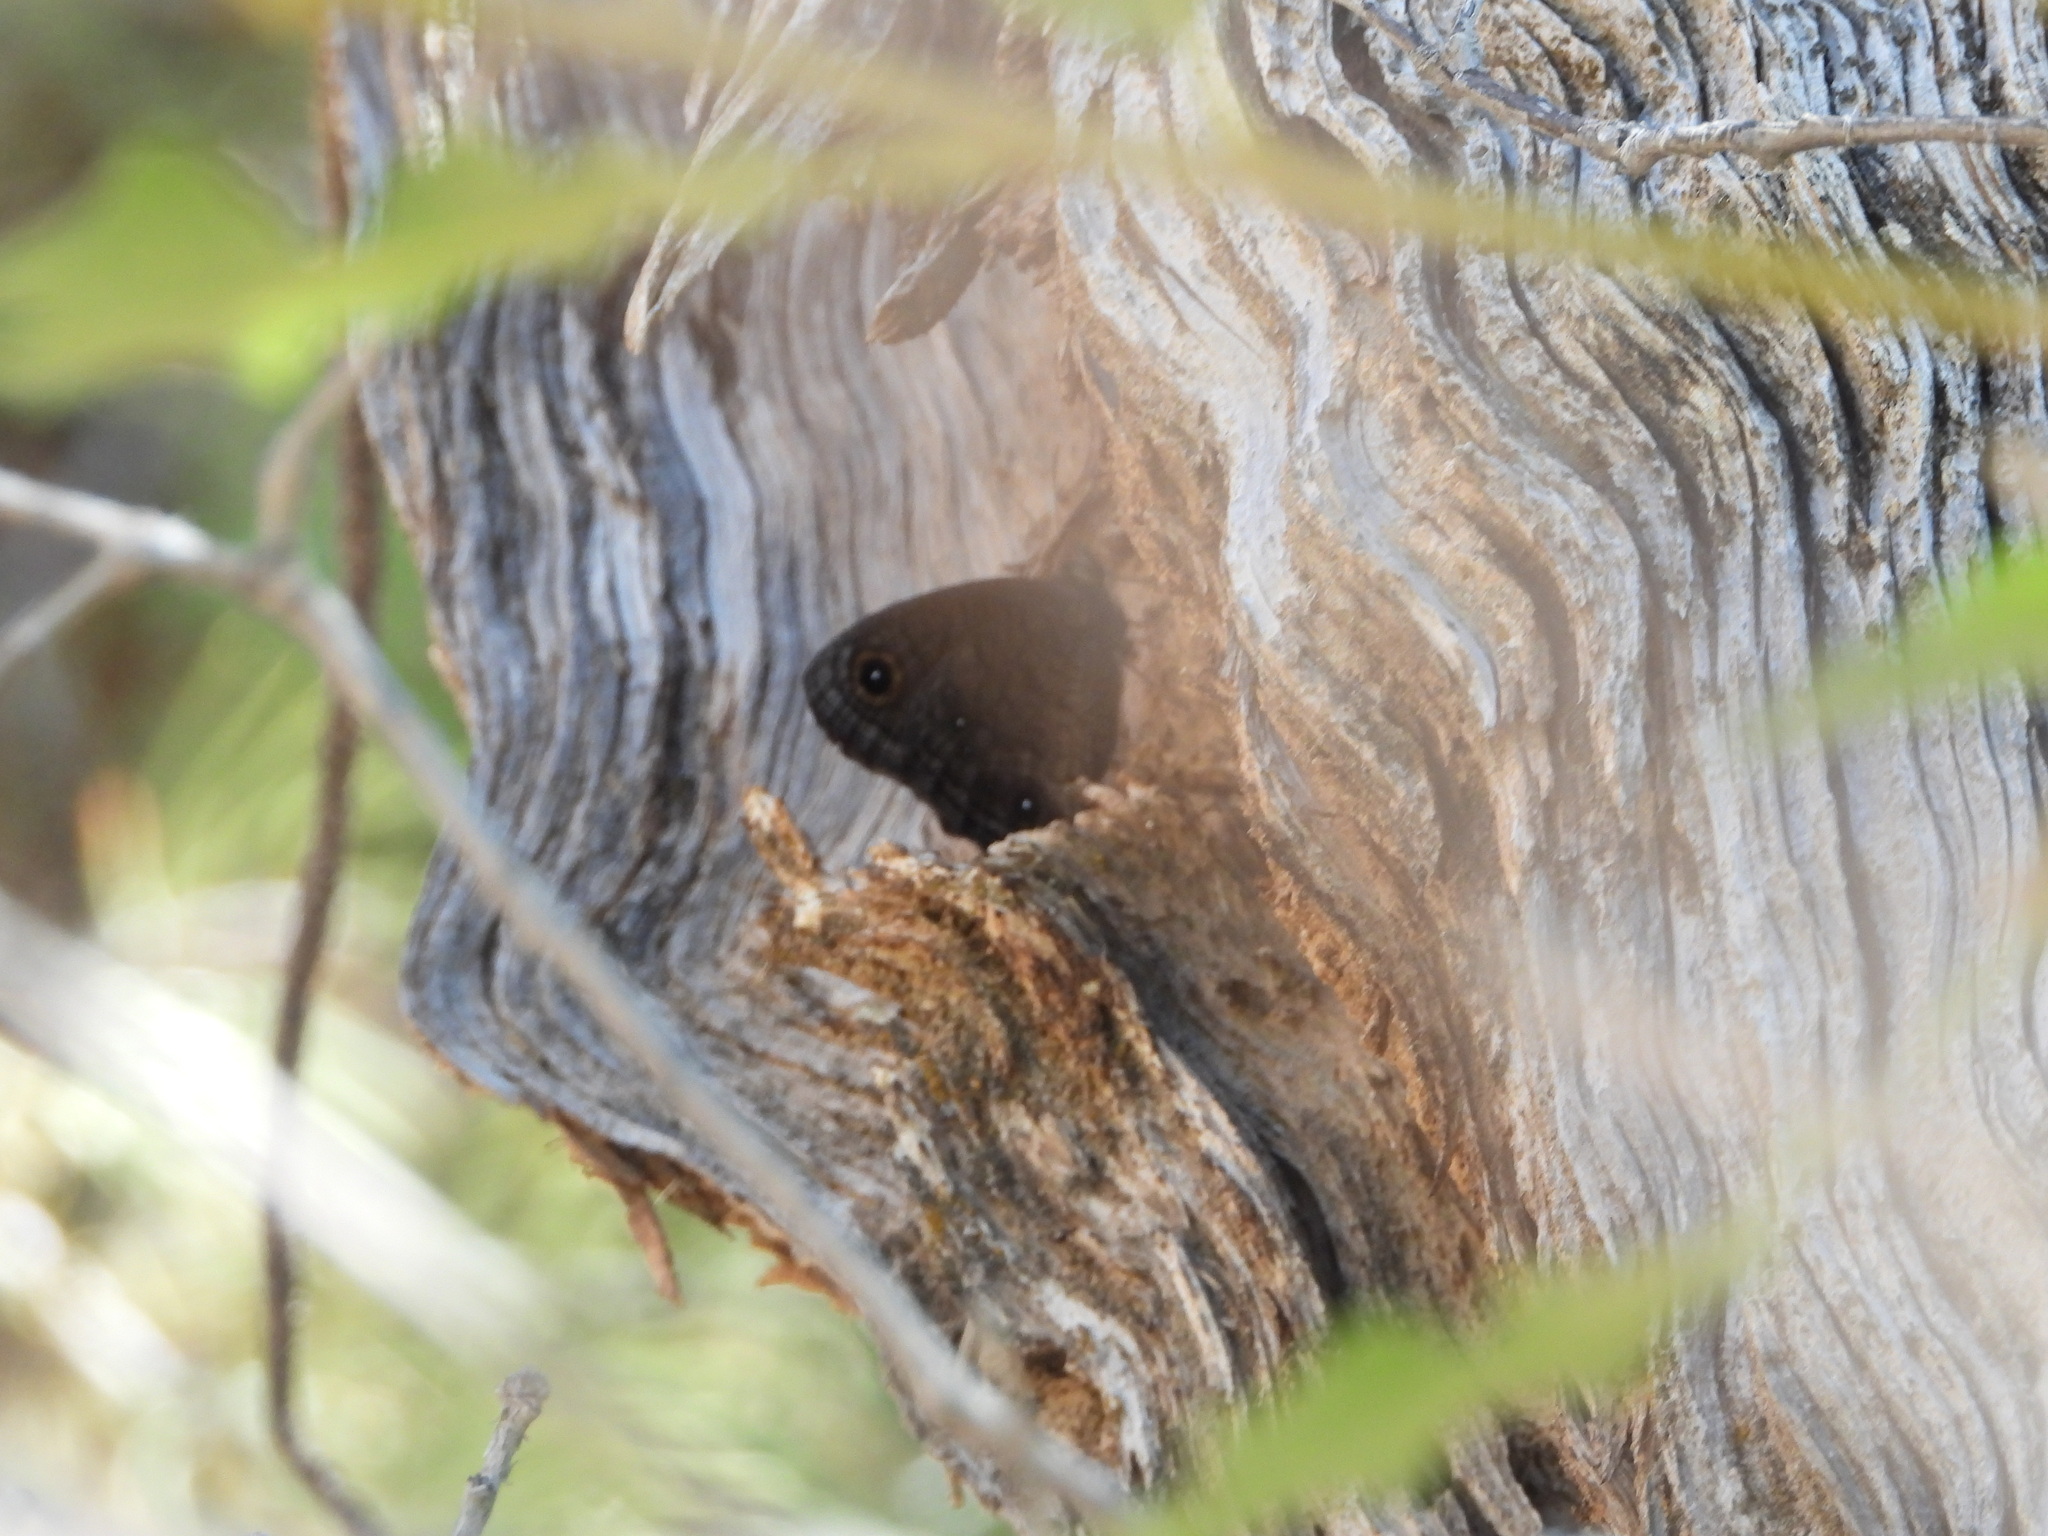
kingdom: Animalia
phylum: Arthropoda
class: Insecta
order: Lepidoptera
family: Nymphalidae
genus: Cercyonis
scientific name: Cercyonis sthenele
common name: Great basin wood-nymph
